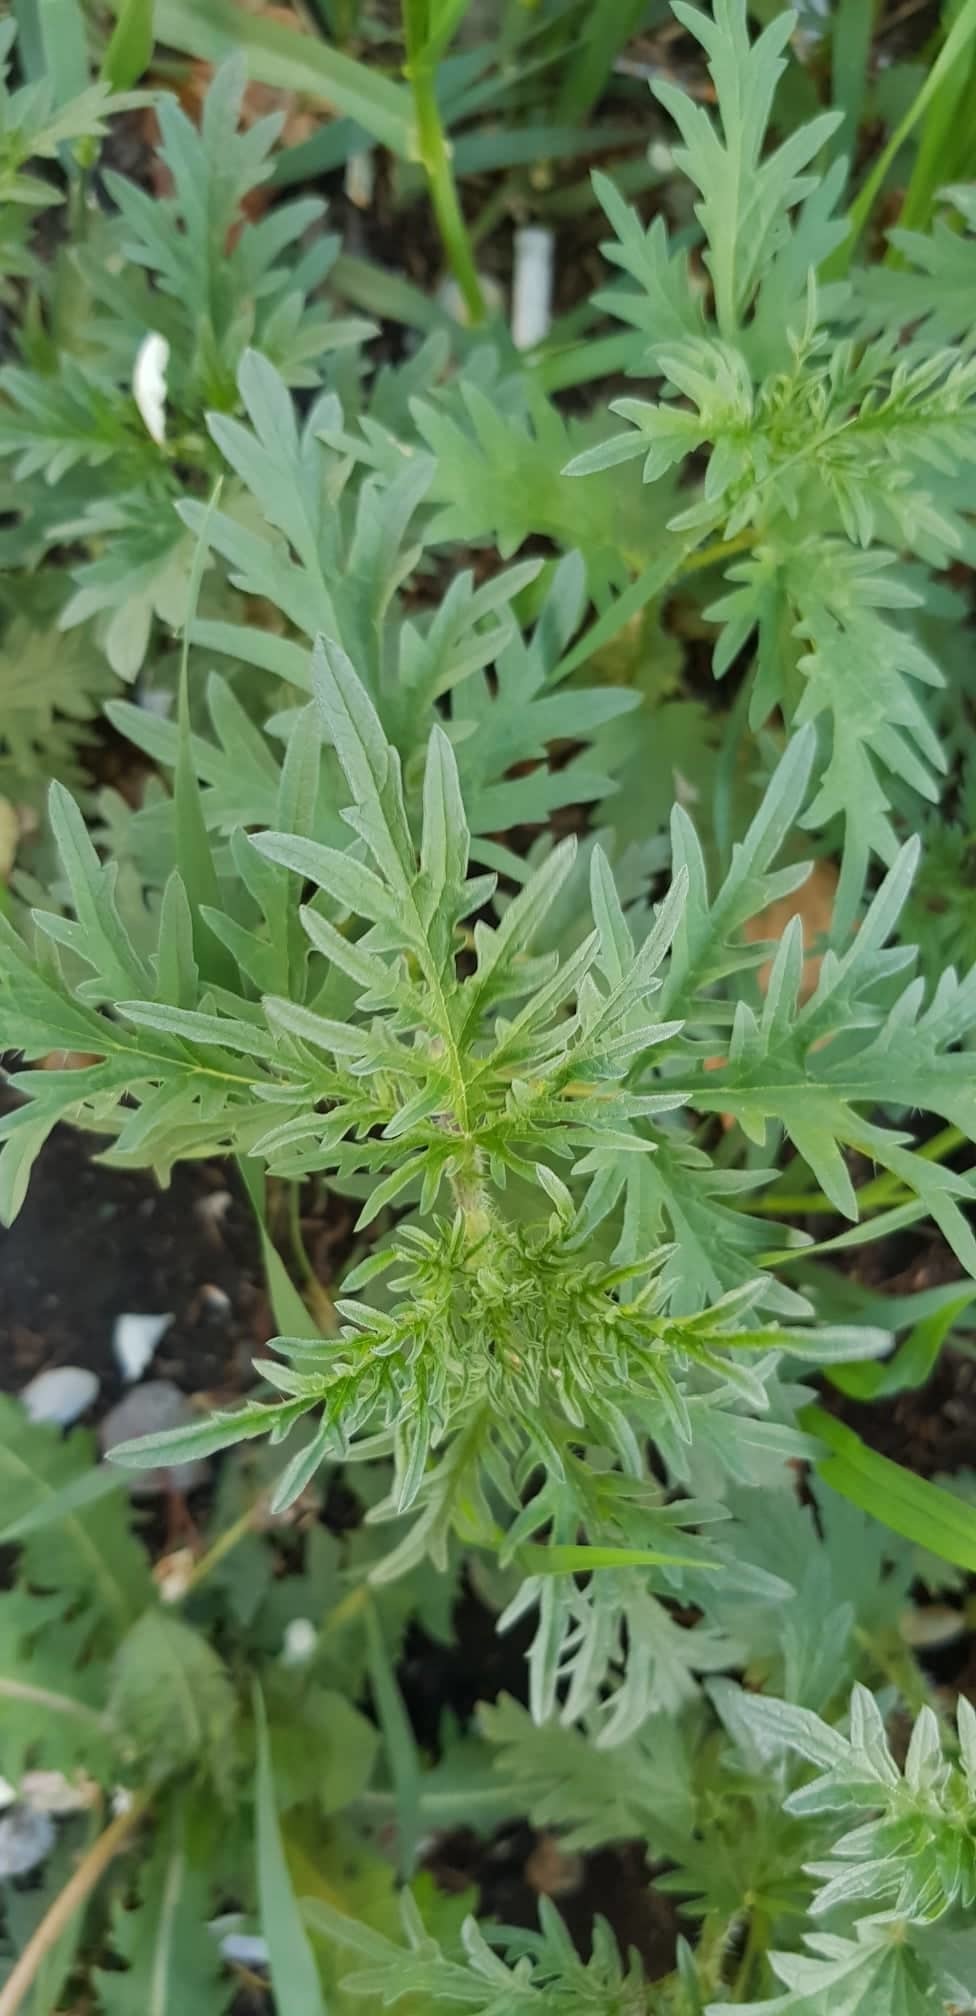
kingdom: Plantae
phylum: Tracheophyta
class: Magnoliopsida
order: Rosales
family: Urticaceae
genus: Urtica
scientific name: Urtica cannabina
